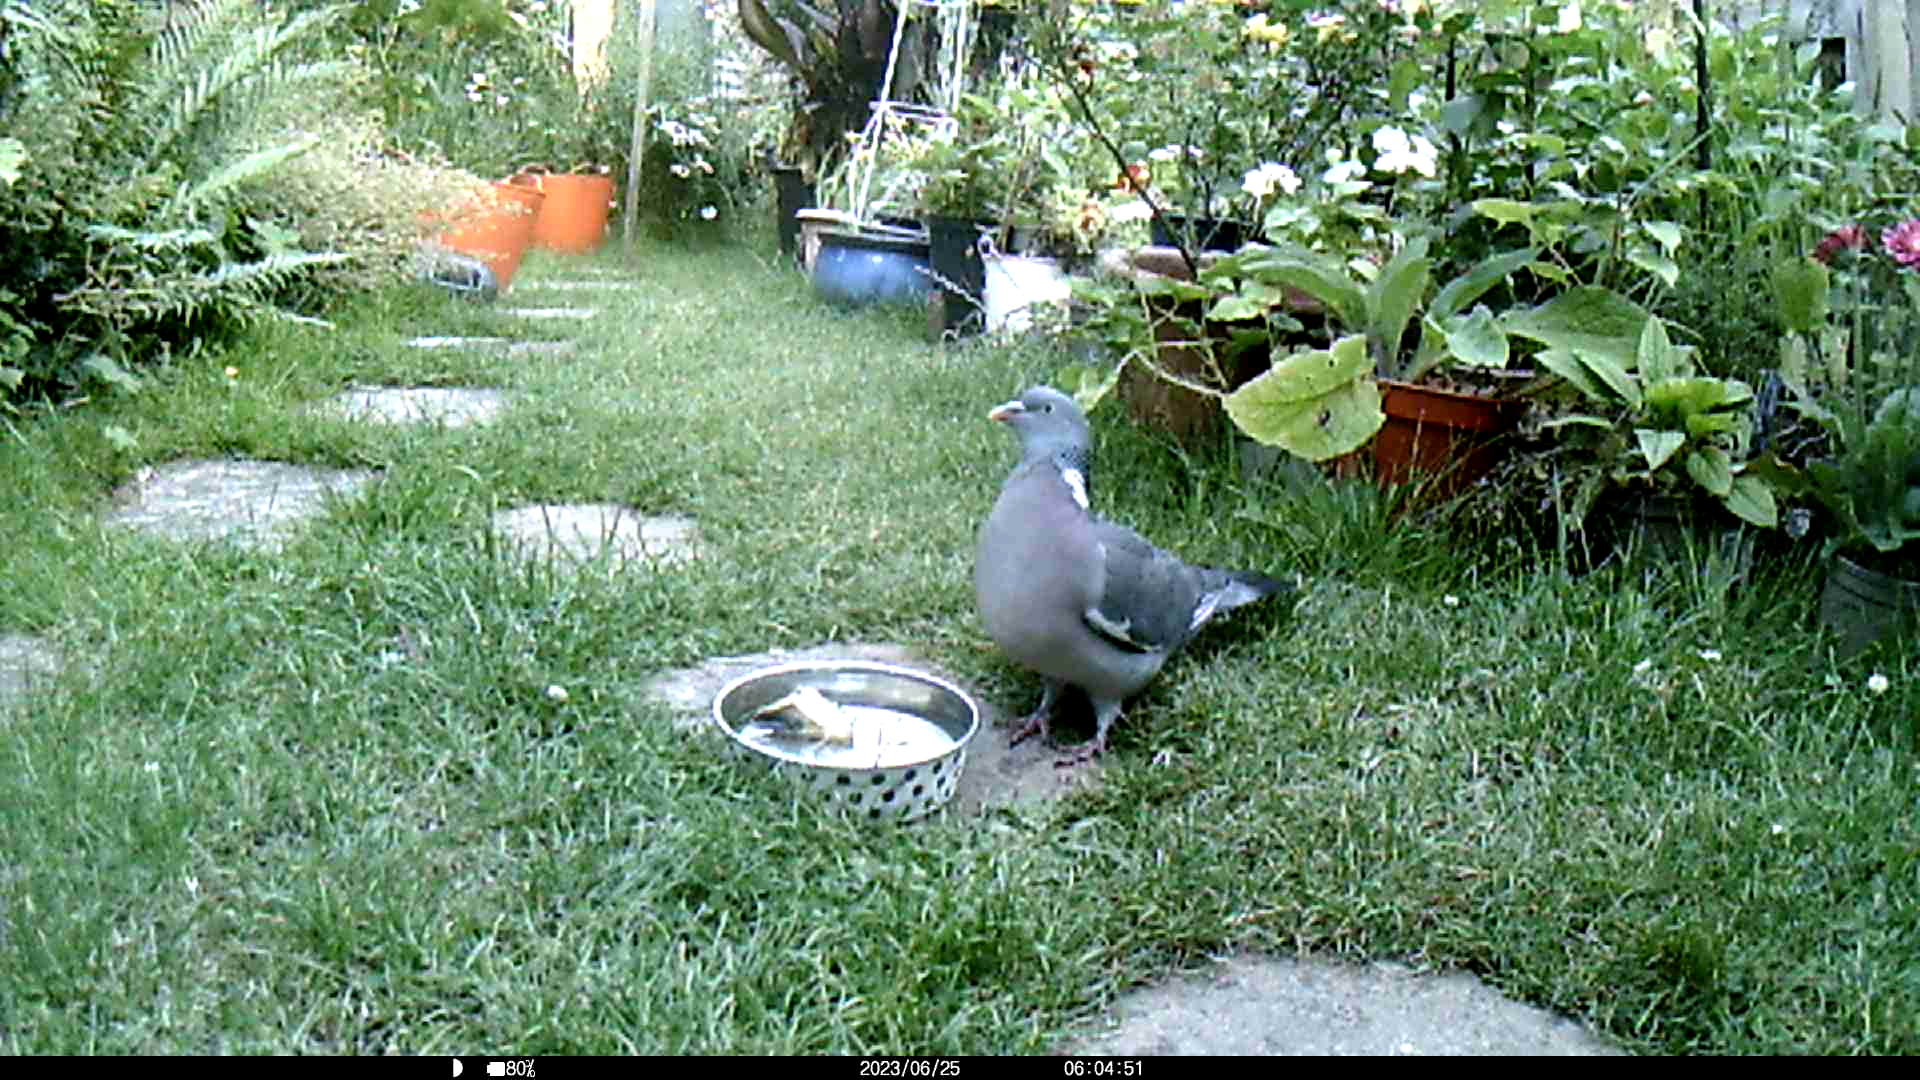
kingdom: Animalia
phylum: Chordata
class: Aves
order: Columbiformes
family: Columbidae
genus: Columba
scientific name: Columba palumbus
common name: Common wood pigeon
